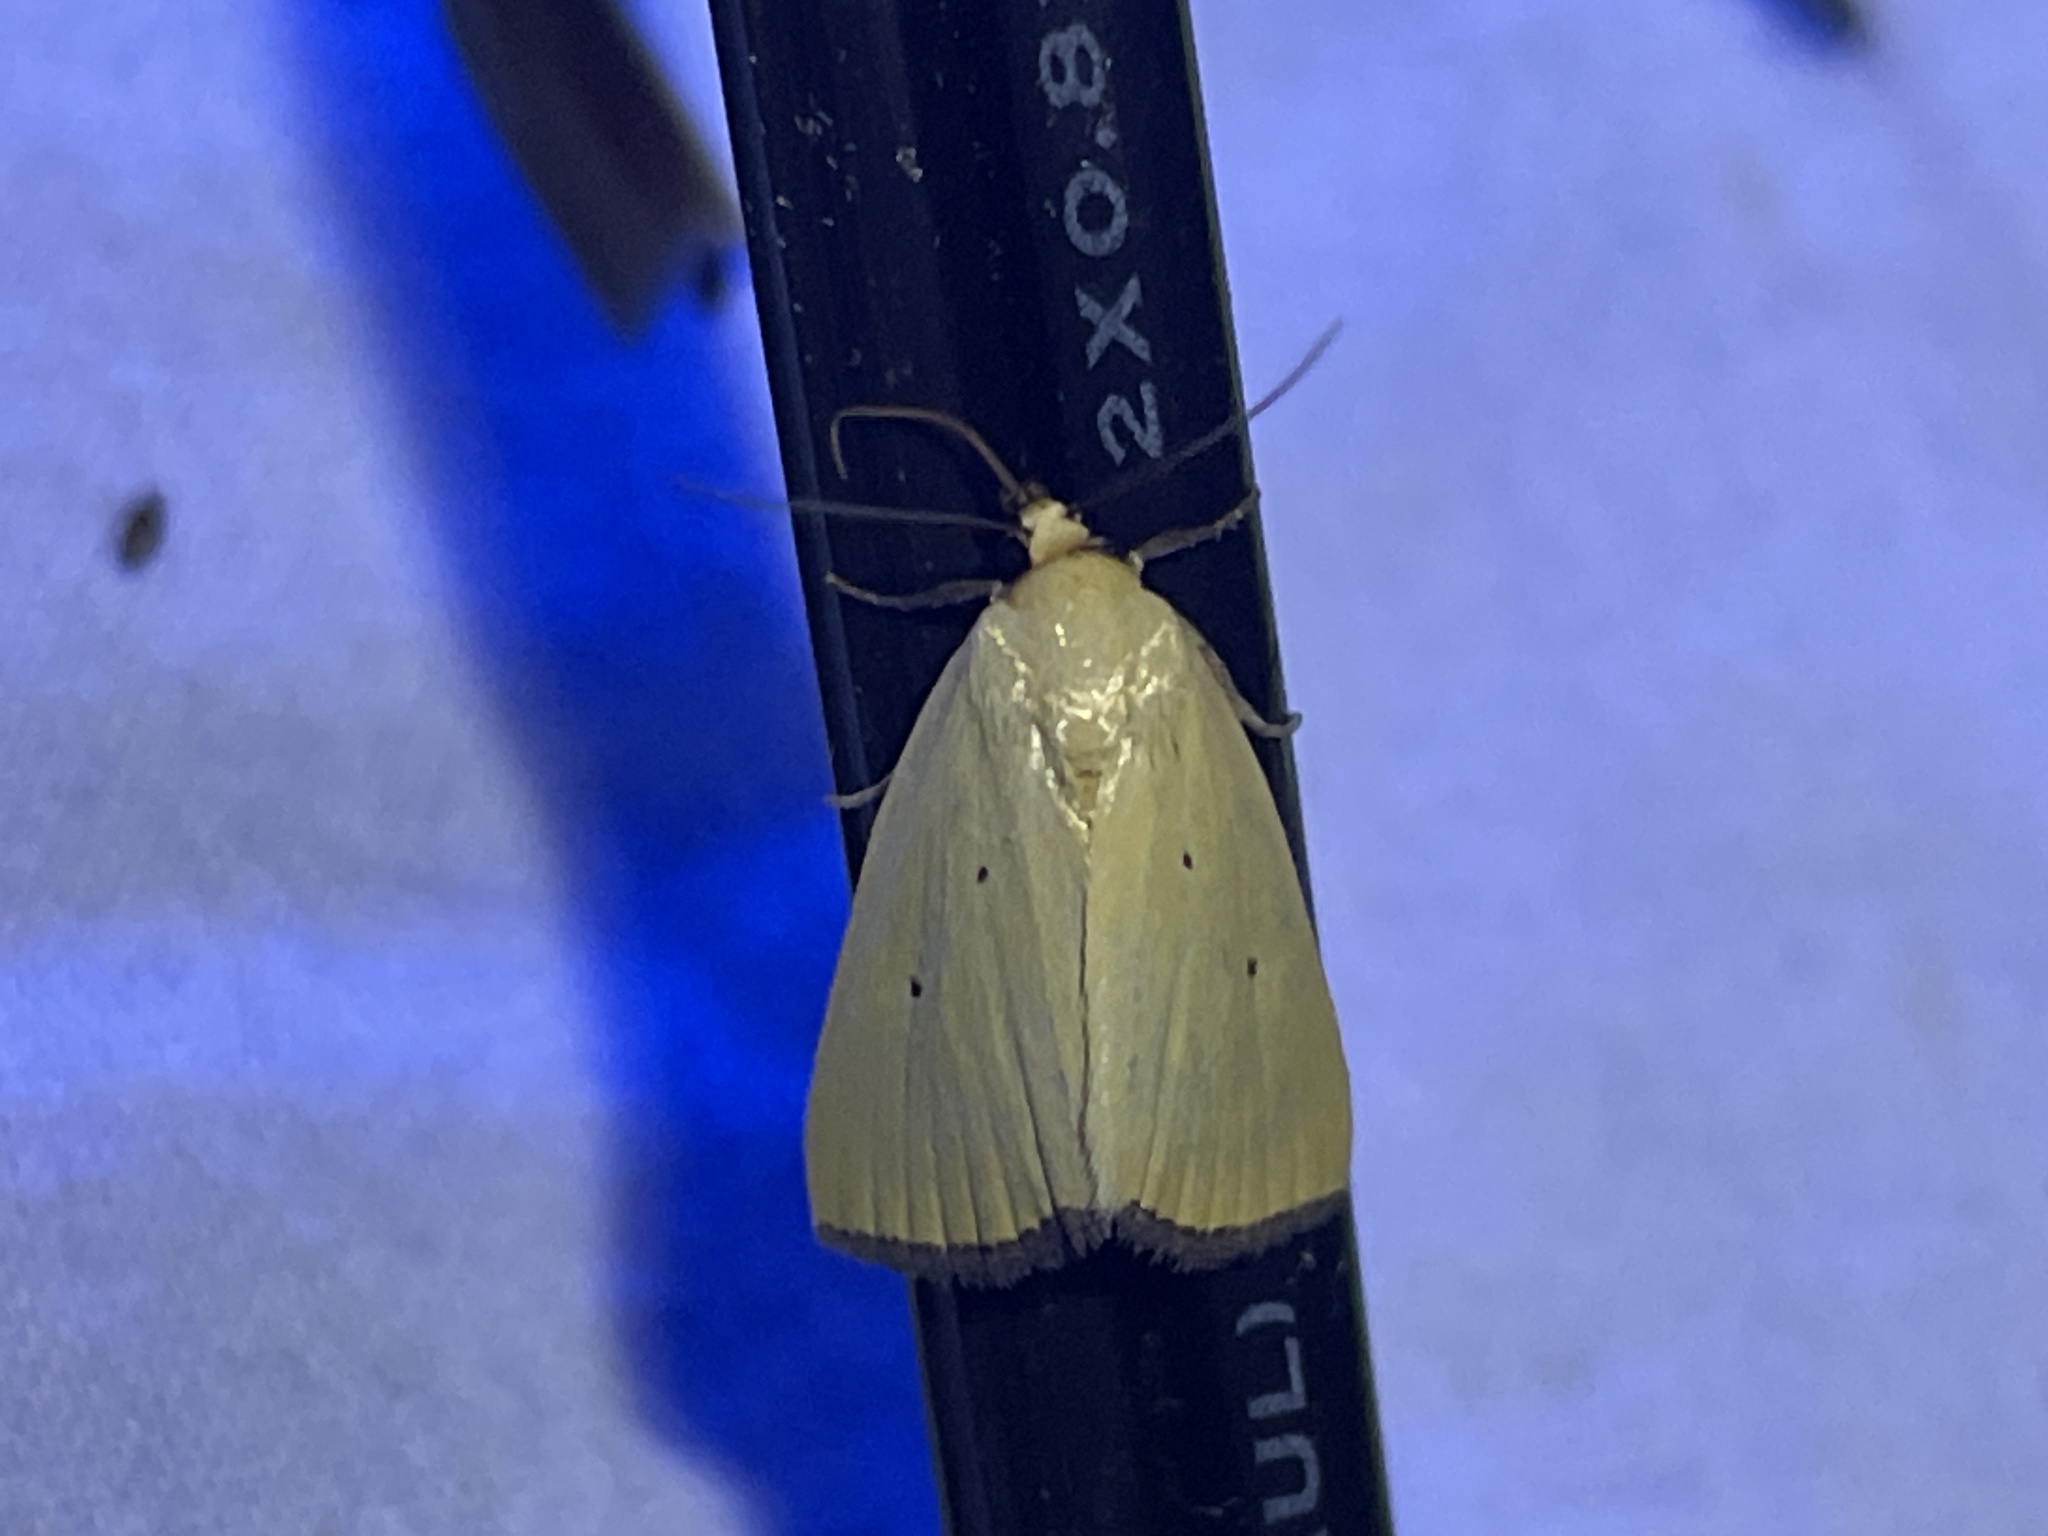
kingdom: Animalia
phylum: Arthropoda
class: Insecta
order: Lepidoptera
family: Noctuidae
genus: Marimatha
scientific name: Marimatha nigrofimbria
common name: Black-bordered lemon moth
